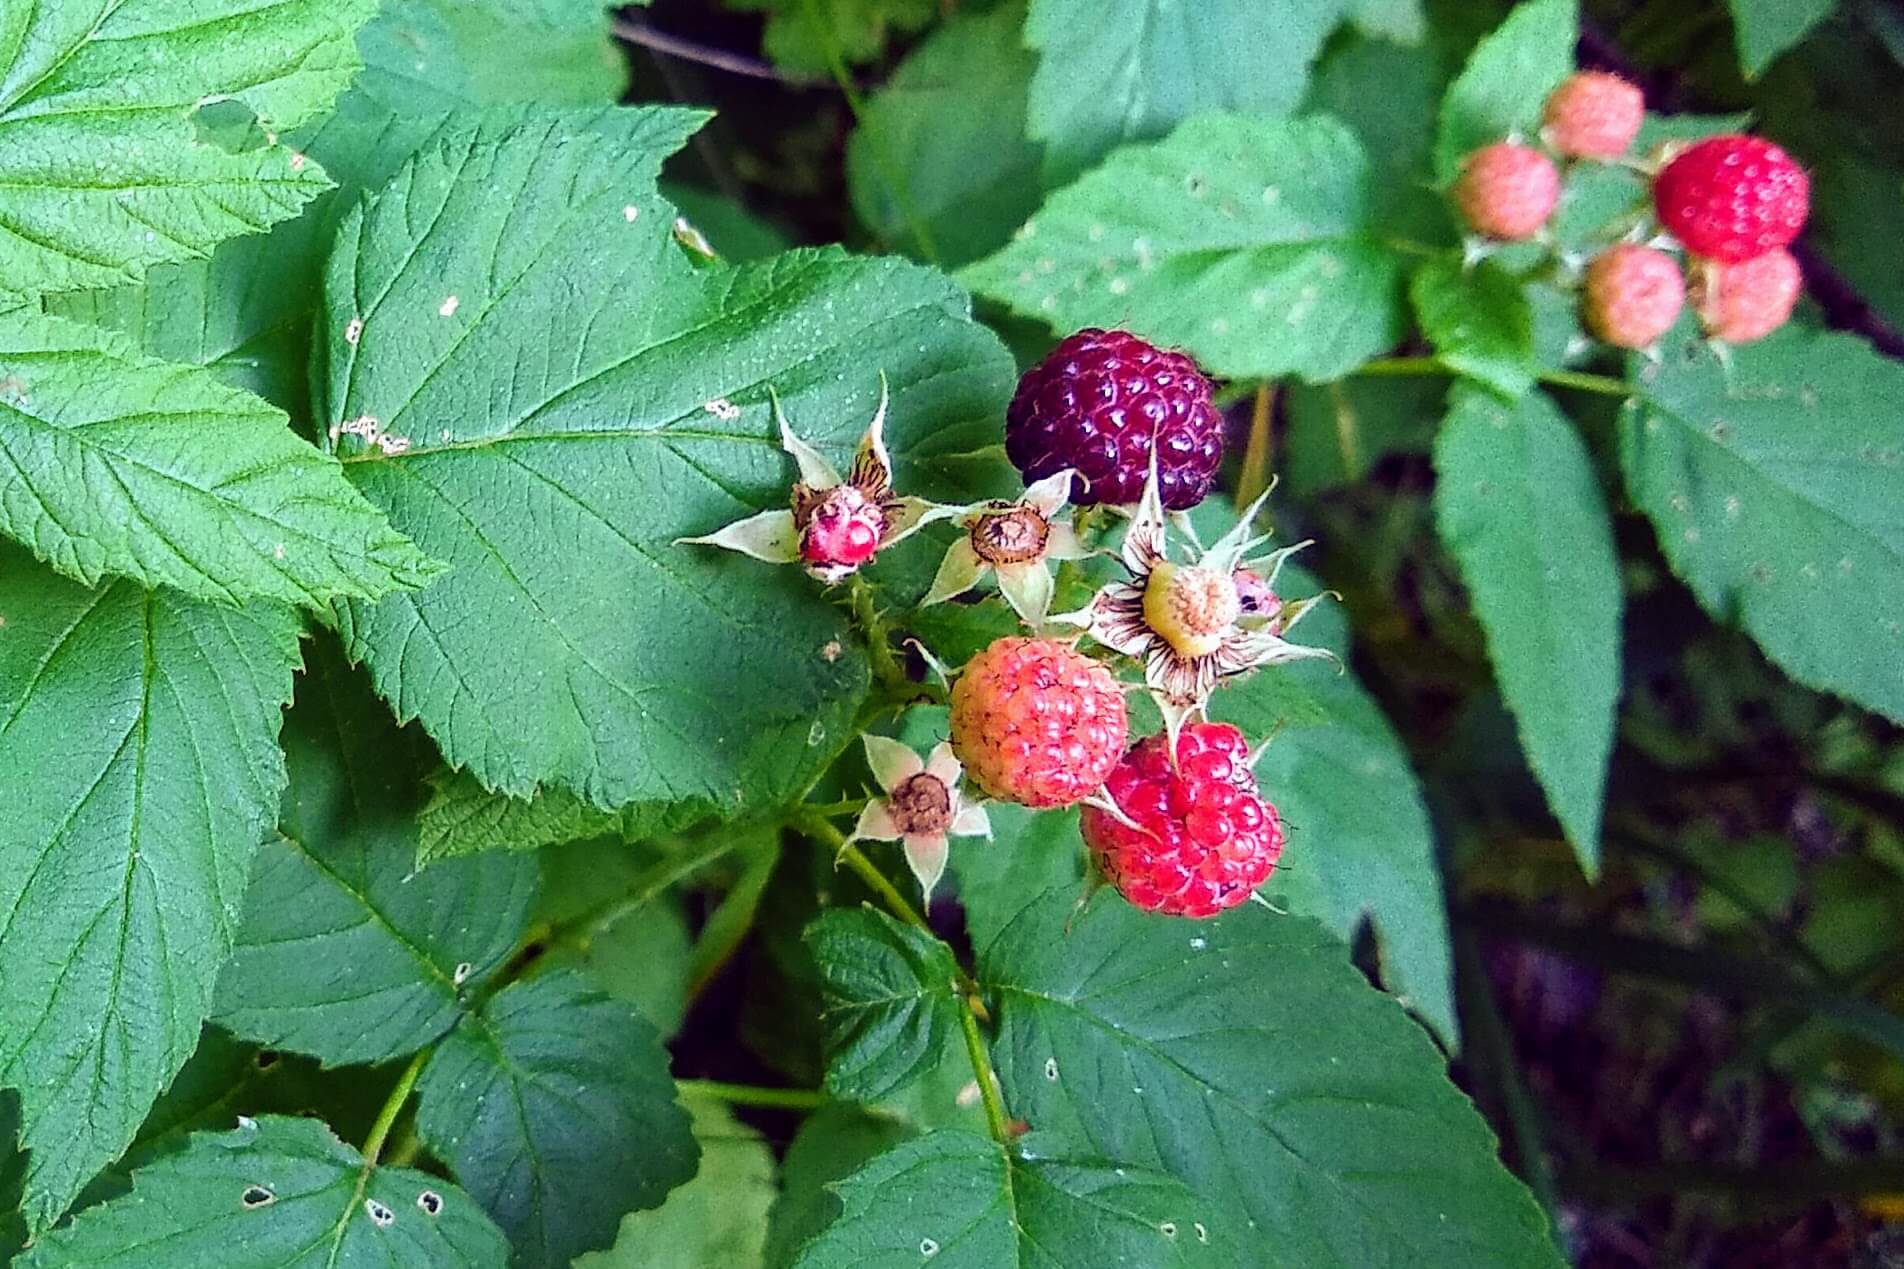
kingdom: Plantae
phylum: Tracheophyta
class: Magnoliopsida
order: Rosales
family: Rosaceae
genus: Rubus
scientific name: Rubus occidentalis
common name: Black raspberry
